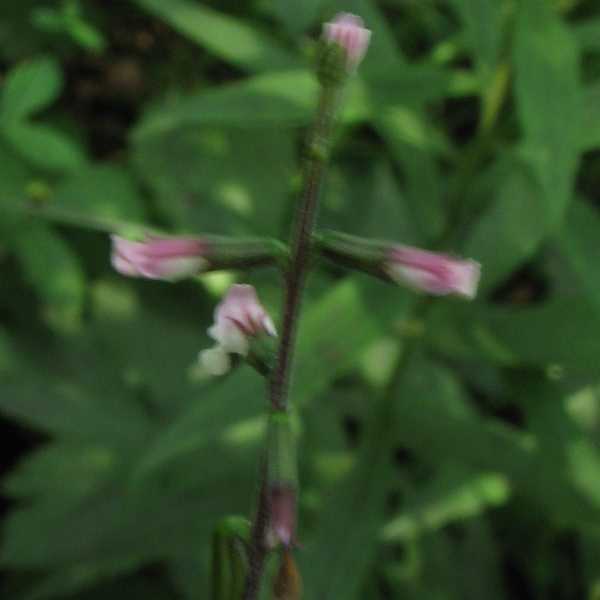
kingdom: Plantae
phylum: Tracheophyta
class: Magnoliopsida
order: Lamiales
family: Phrymaceae
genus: Phryma
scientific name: Phryma leptostachya
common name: American lopseed
